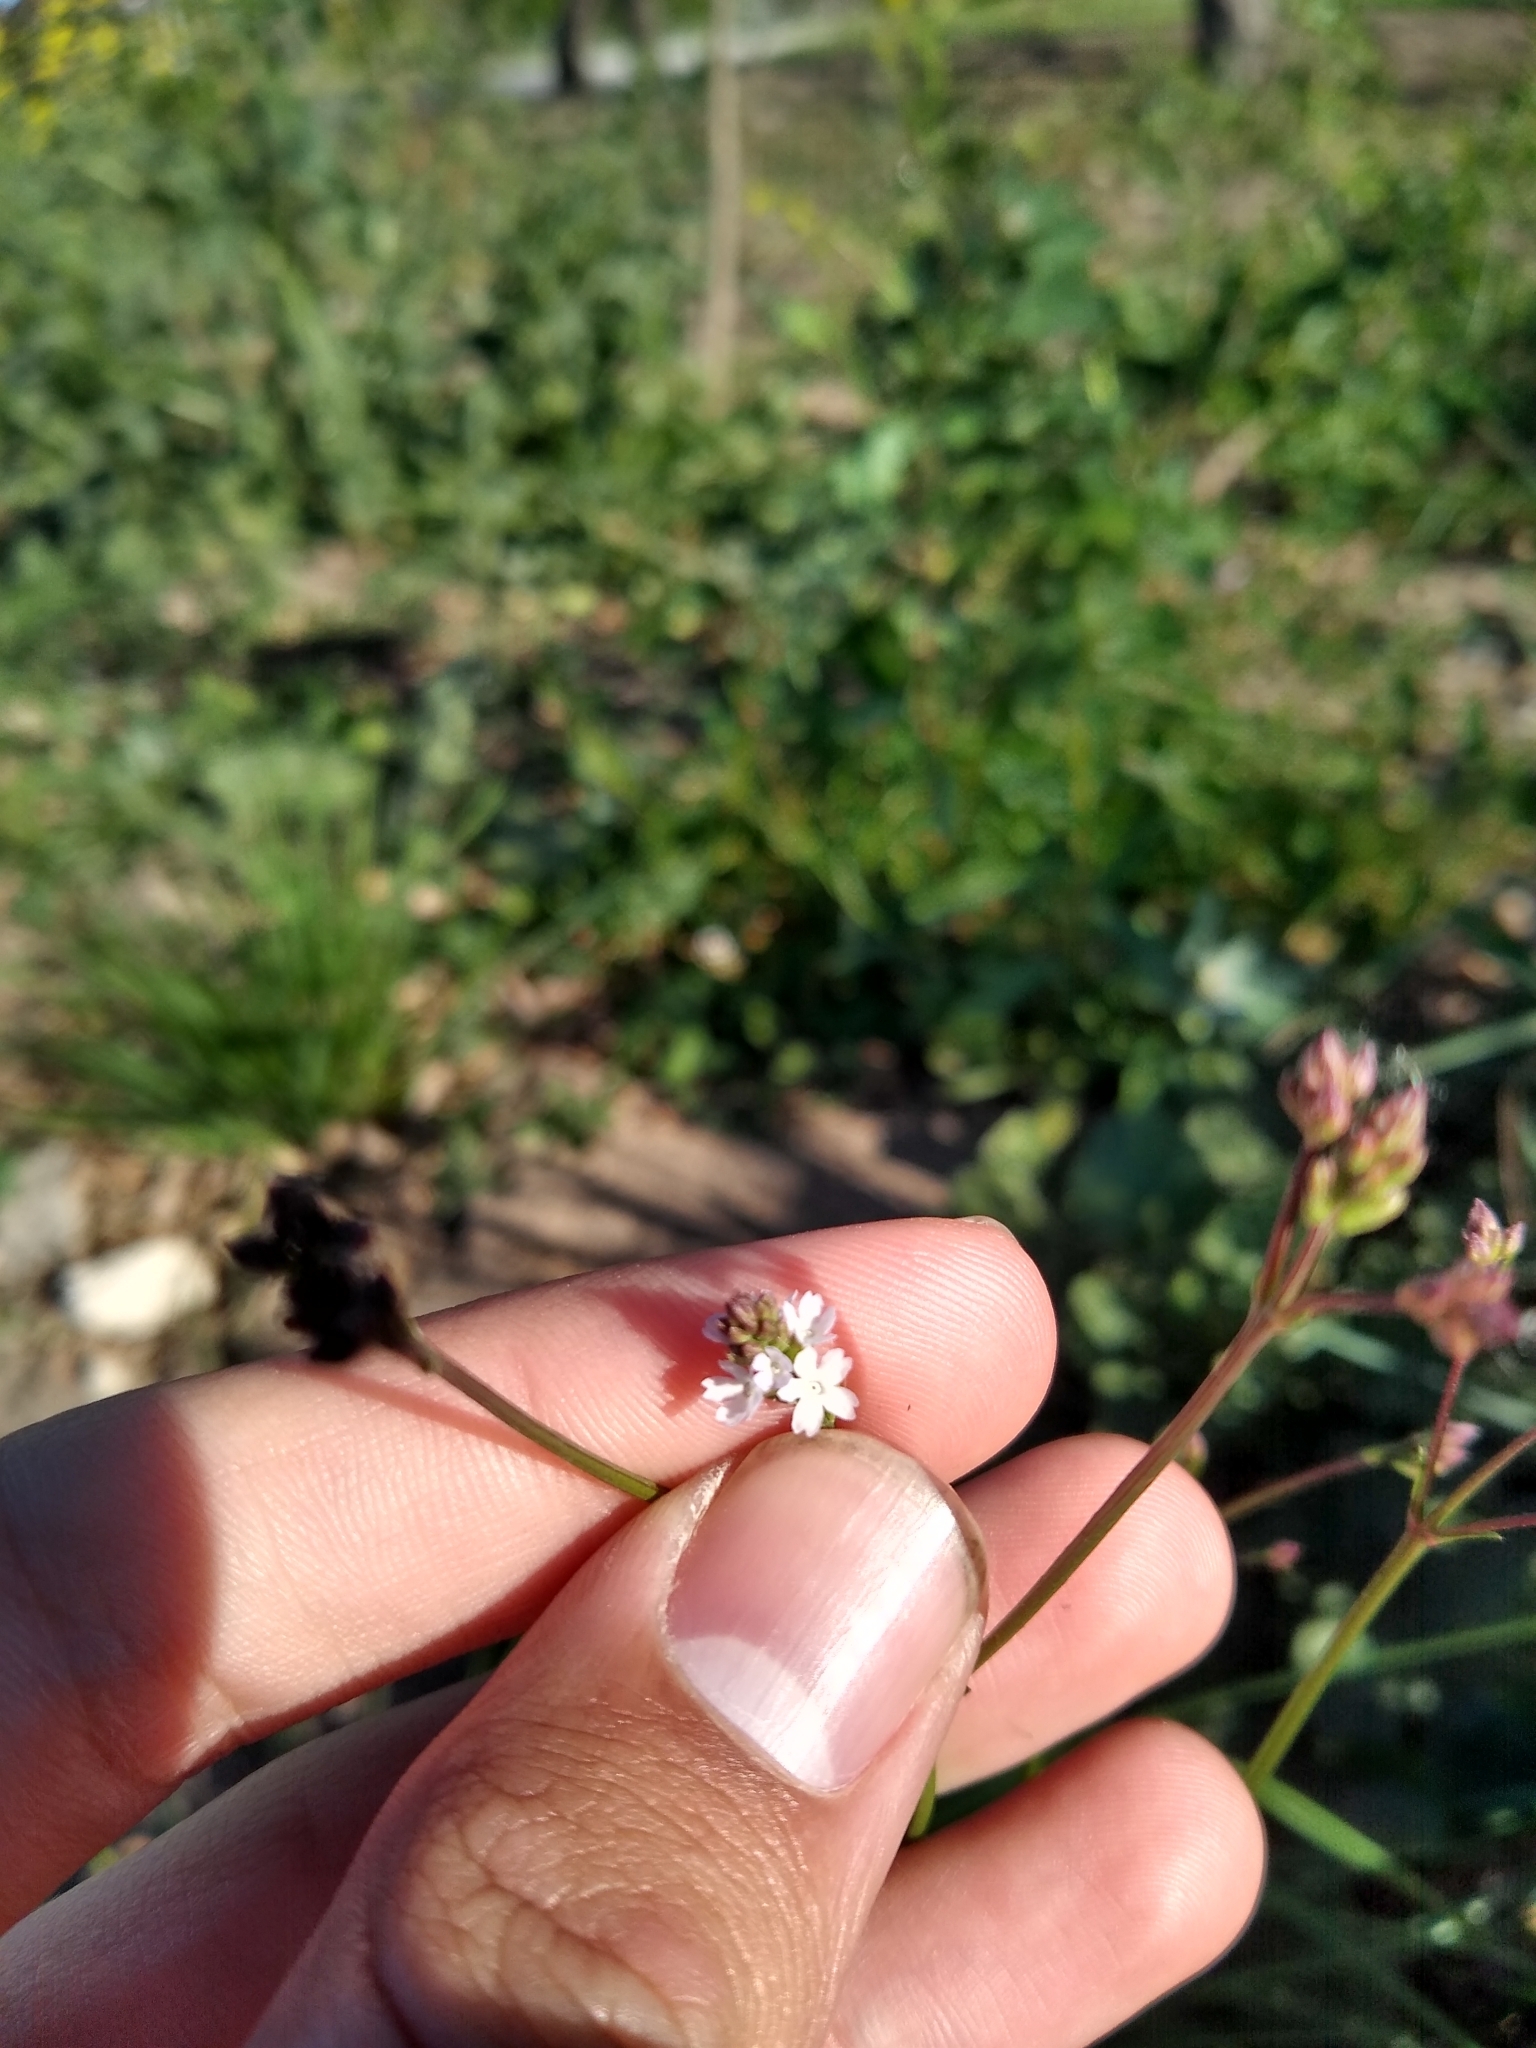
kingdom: Plantae
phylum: Tracheophyta
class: Magnoliopsida
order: Lamiales
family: Verbenaceae
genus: Verbena
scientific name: Verbena montevidensis
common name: Uruguayan vervain
